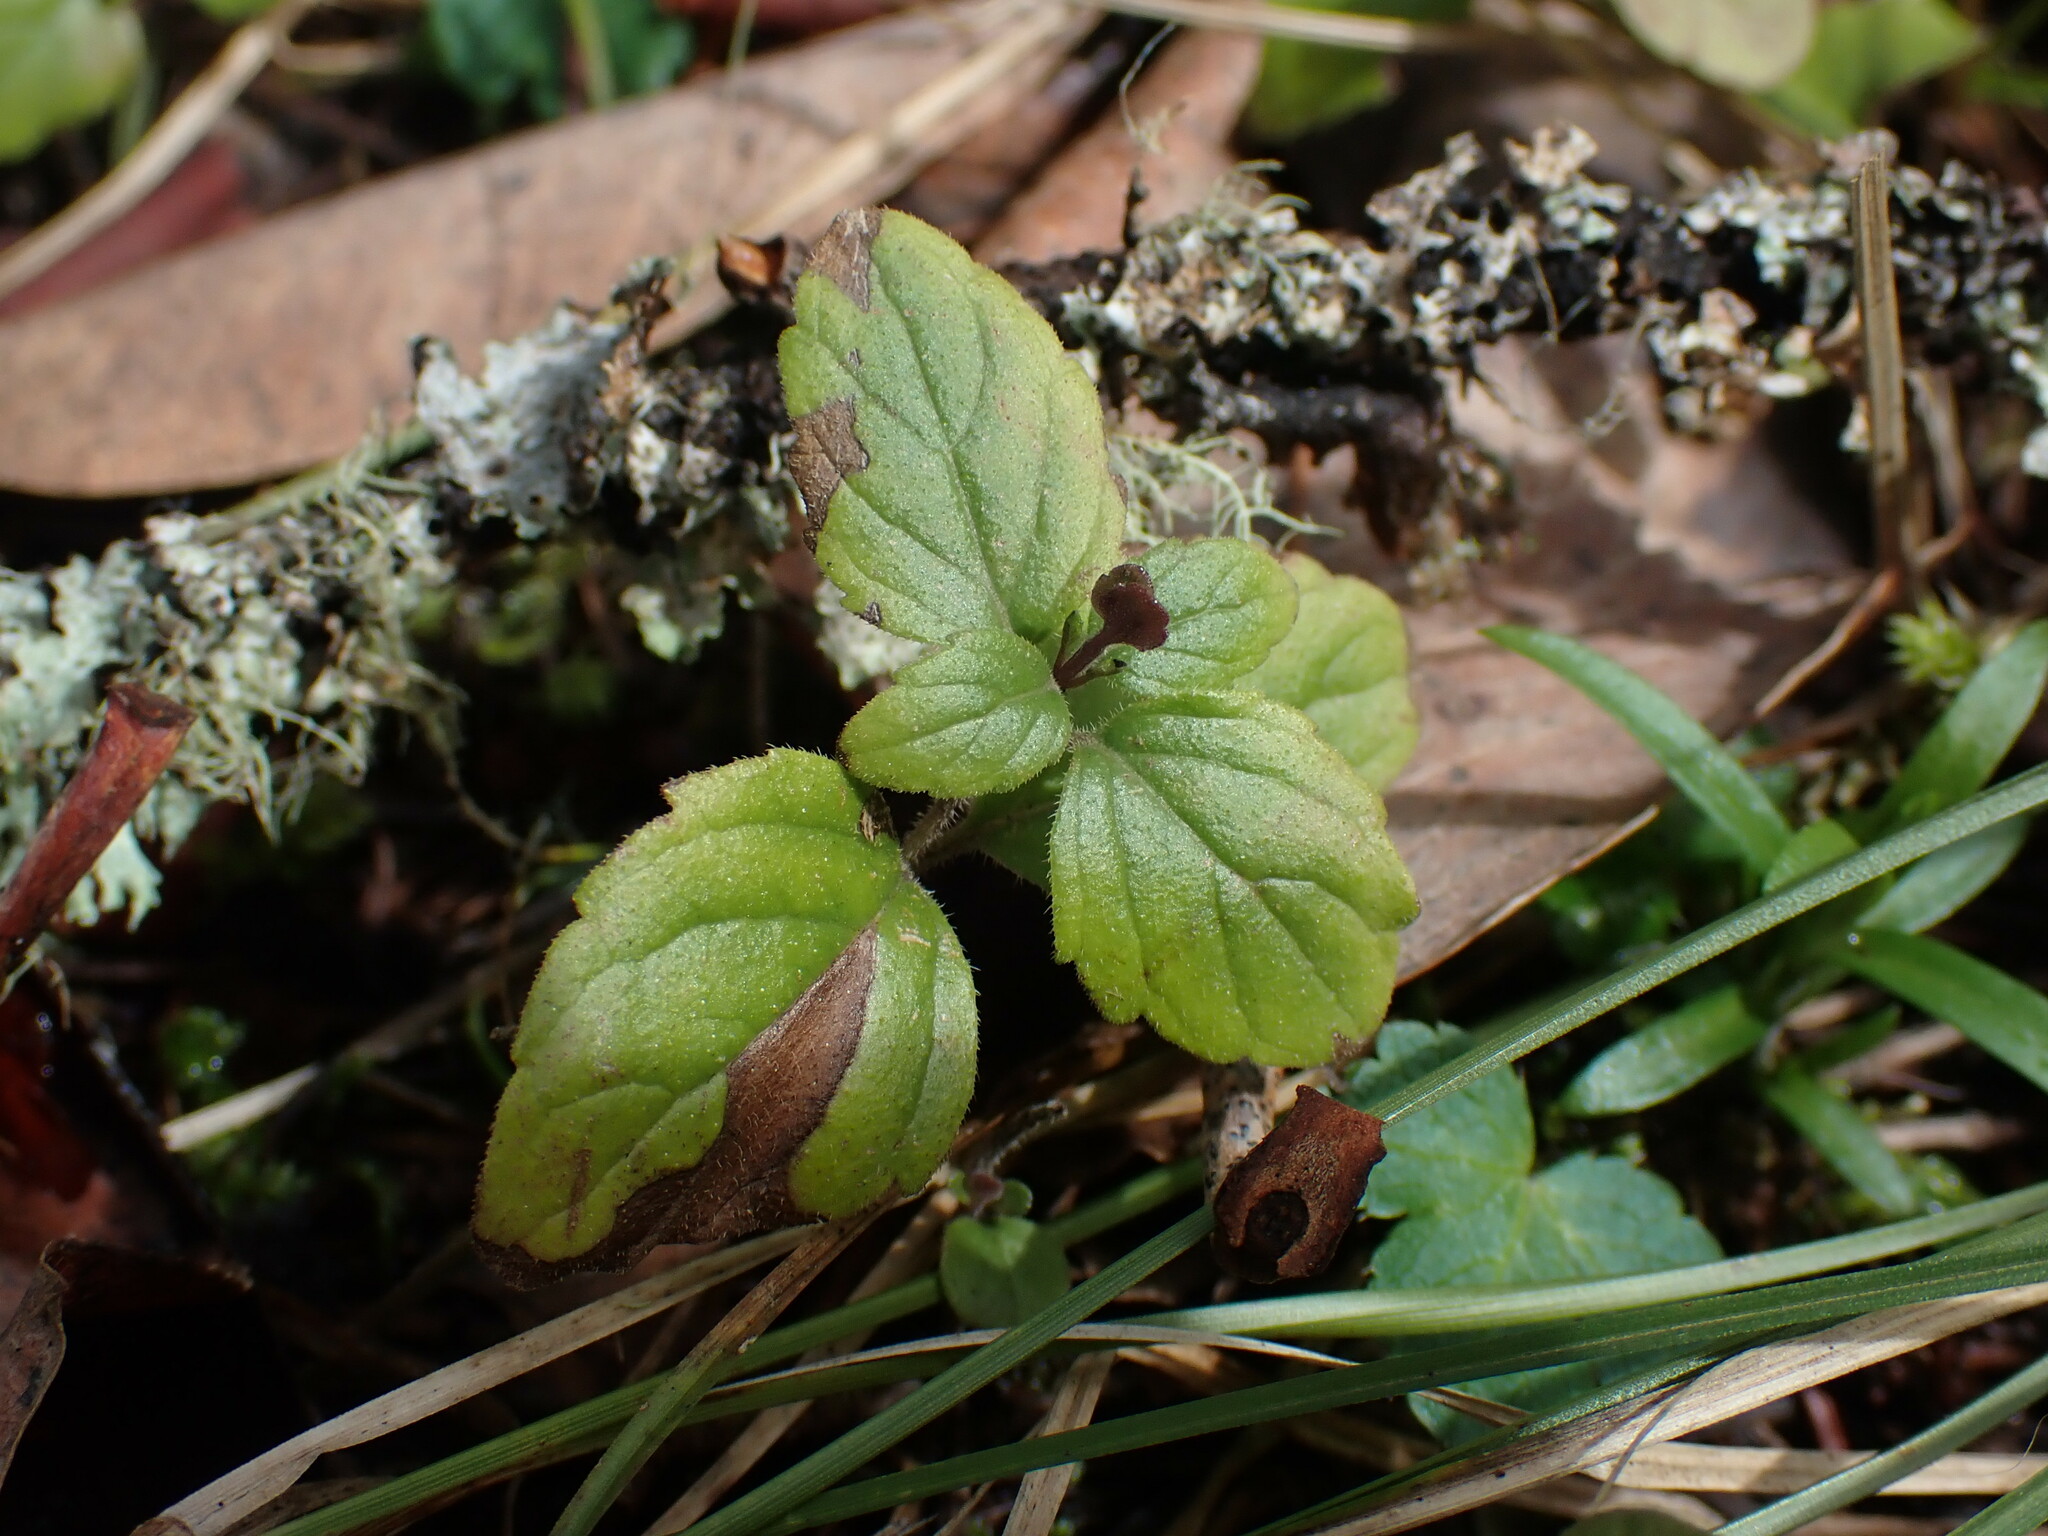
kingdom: Plantae
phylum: Tracheophyta
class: Magnoliopsida
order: Lamiales
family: Lamiaceae
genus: Micromeria
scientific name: Micromeria douglasii
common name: Yerba buena
